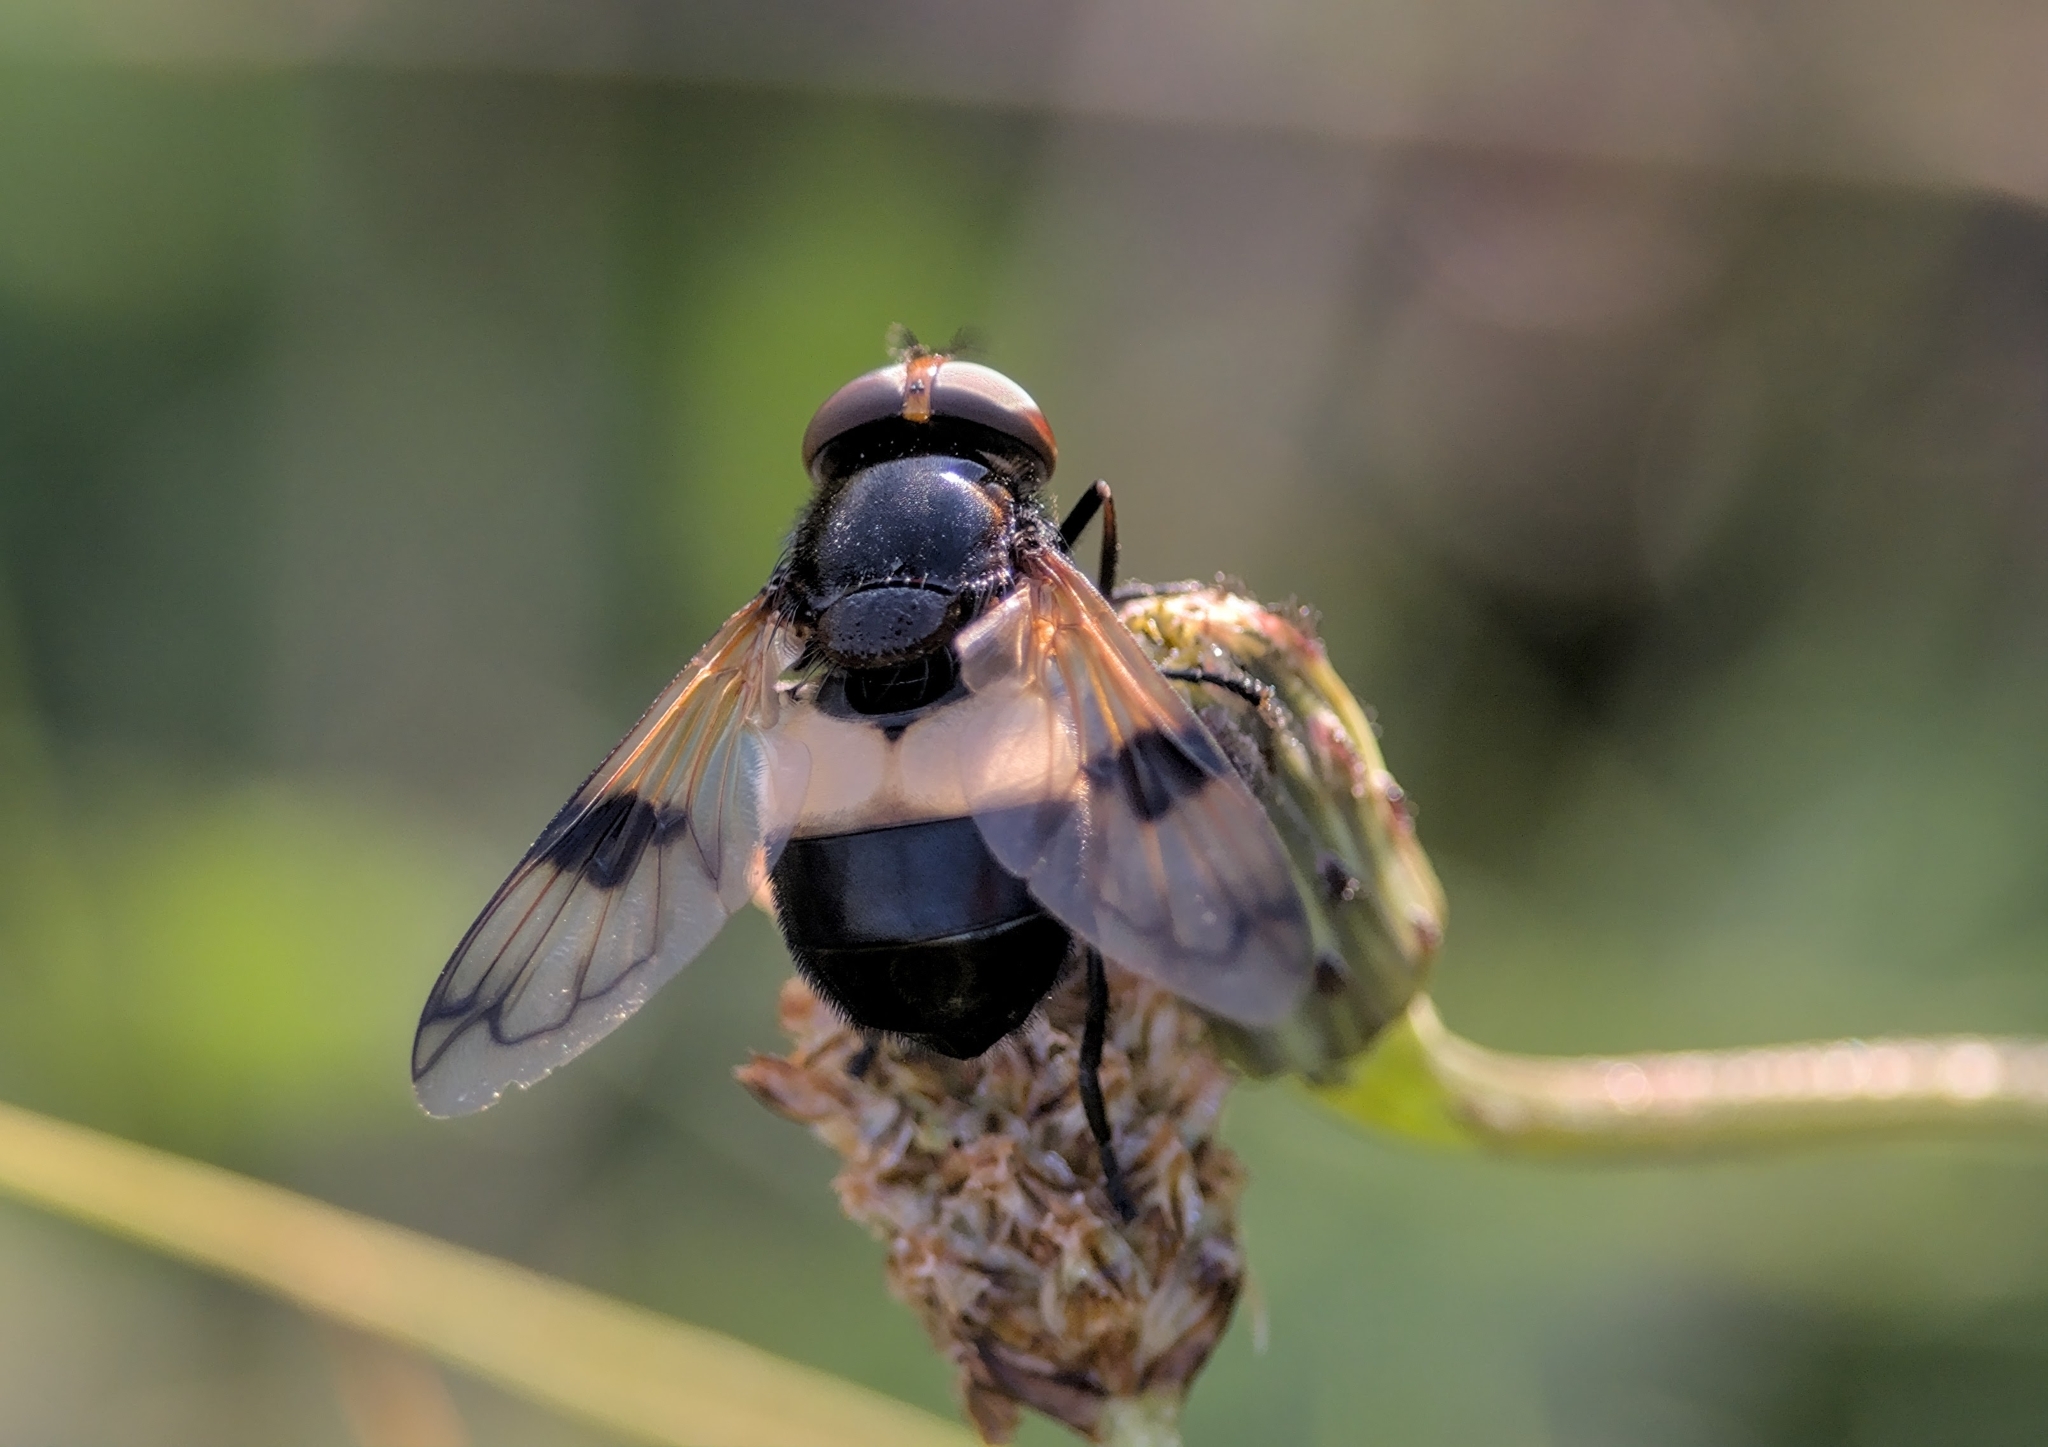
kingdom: Animalia
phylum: Arthropoda
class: Insecta
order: Diptera
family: Syrphidae
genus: Volucella
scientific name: Volucella pellucens
